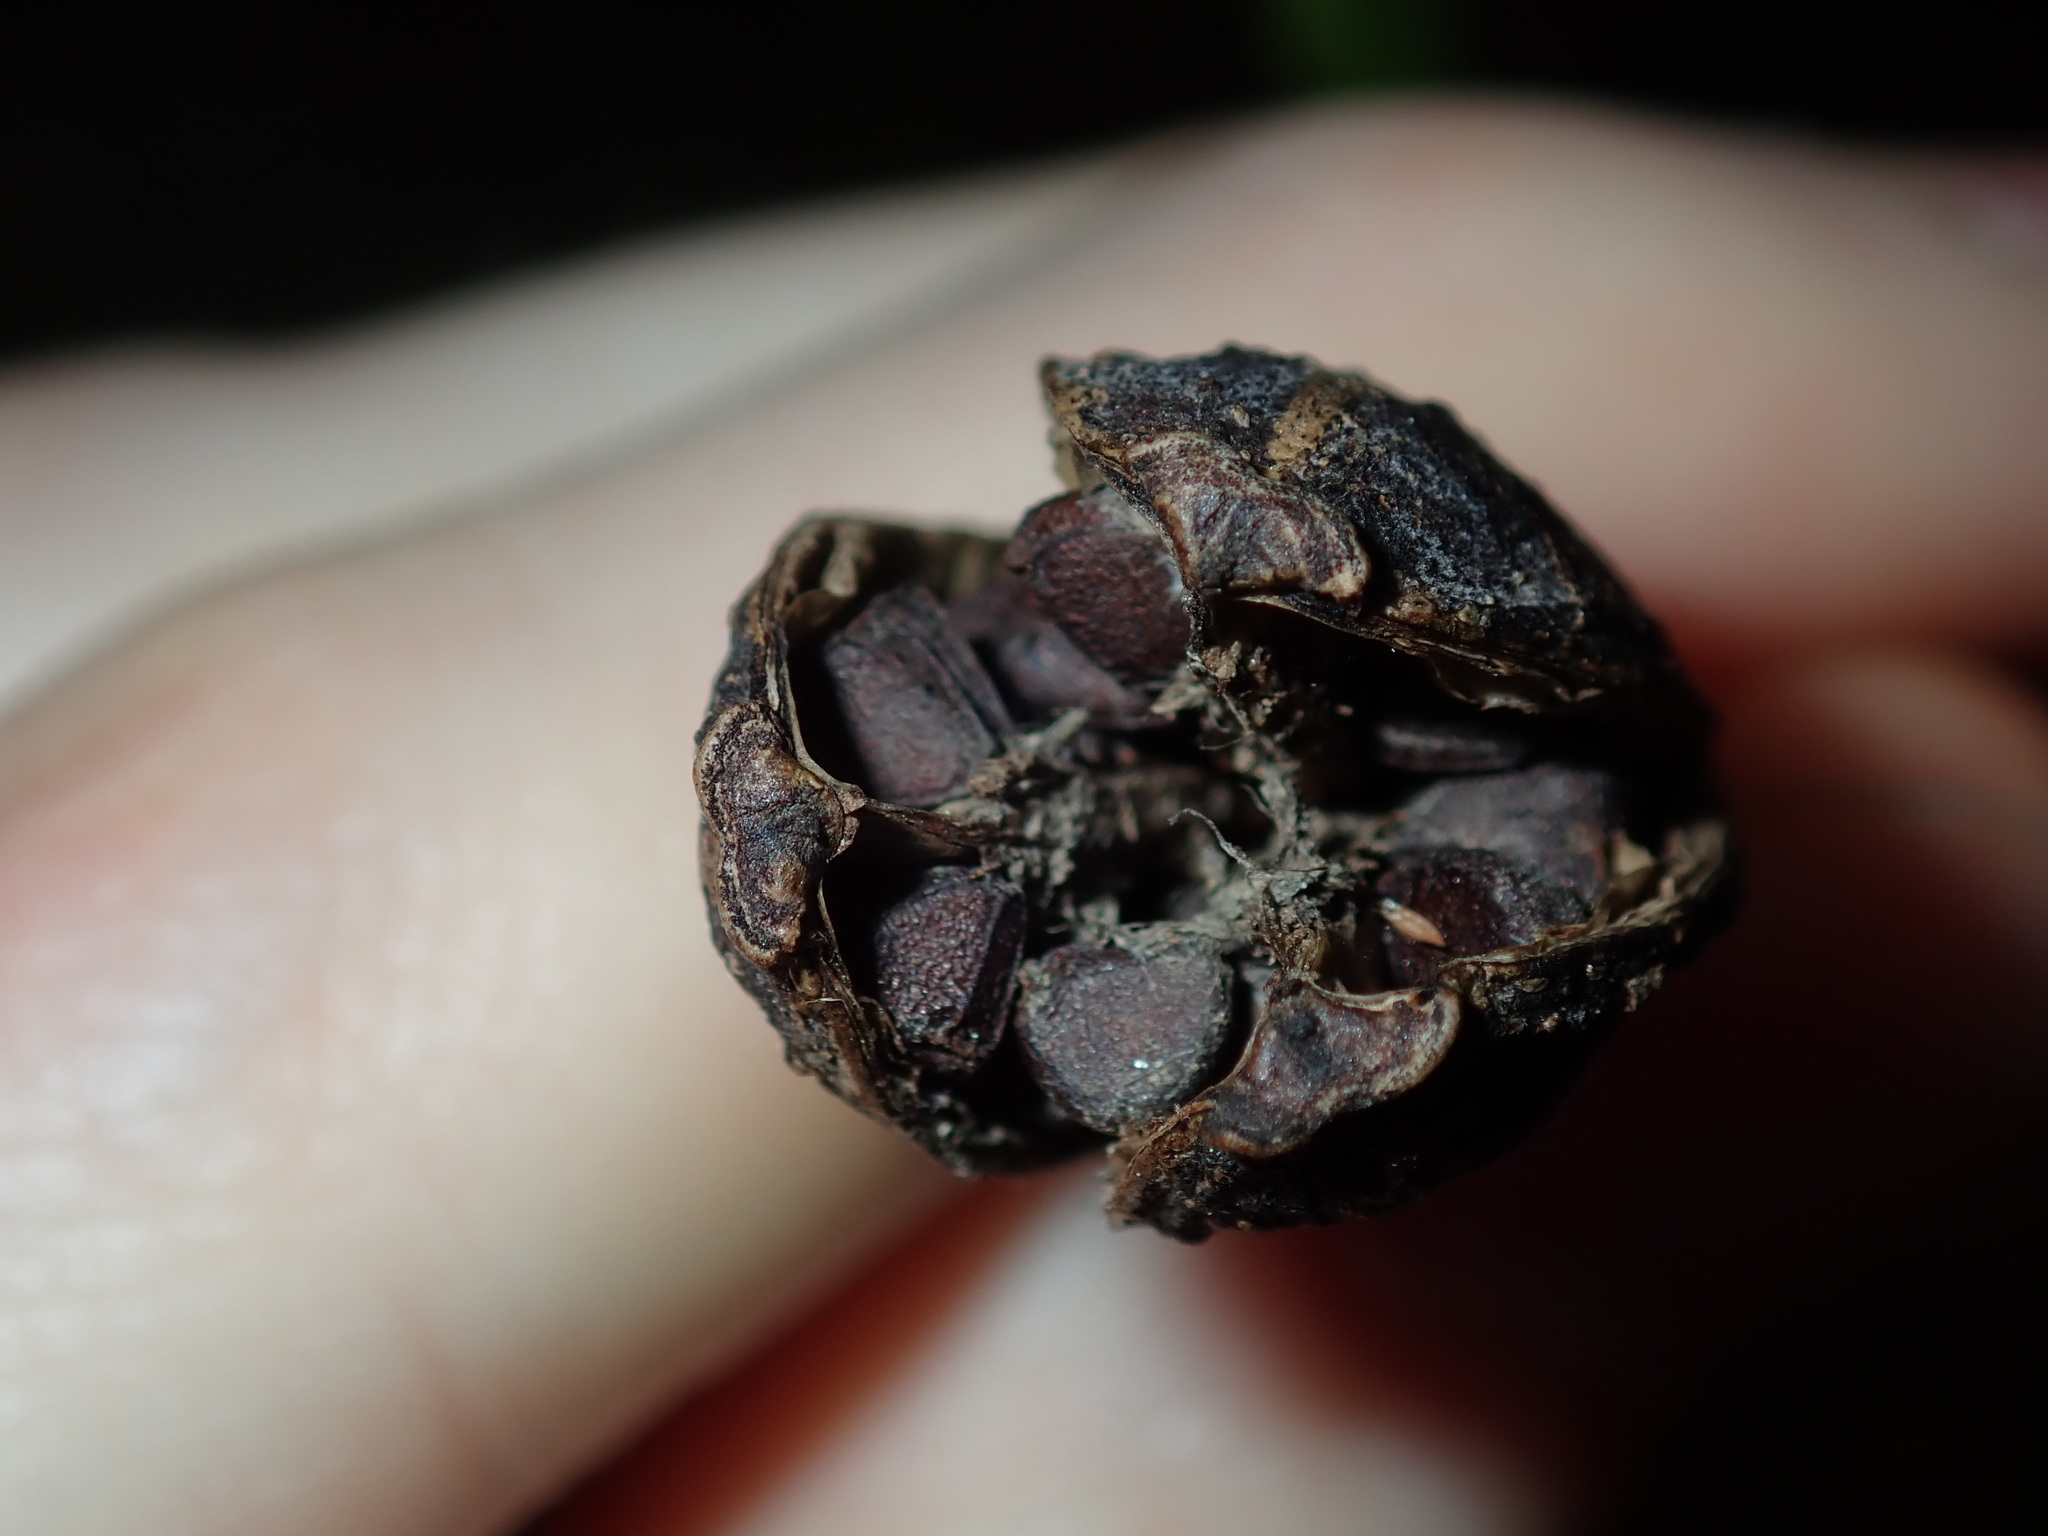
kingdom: Plantae
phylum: Tracheophyta
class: Liliopsida
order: Asparagales
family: Iridaceae
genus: Dietes
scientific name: Dietes grandiflora
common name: Wild iris
